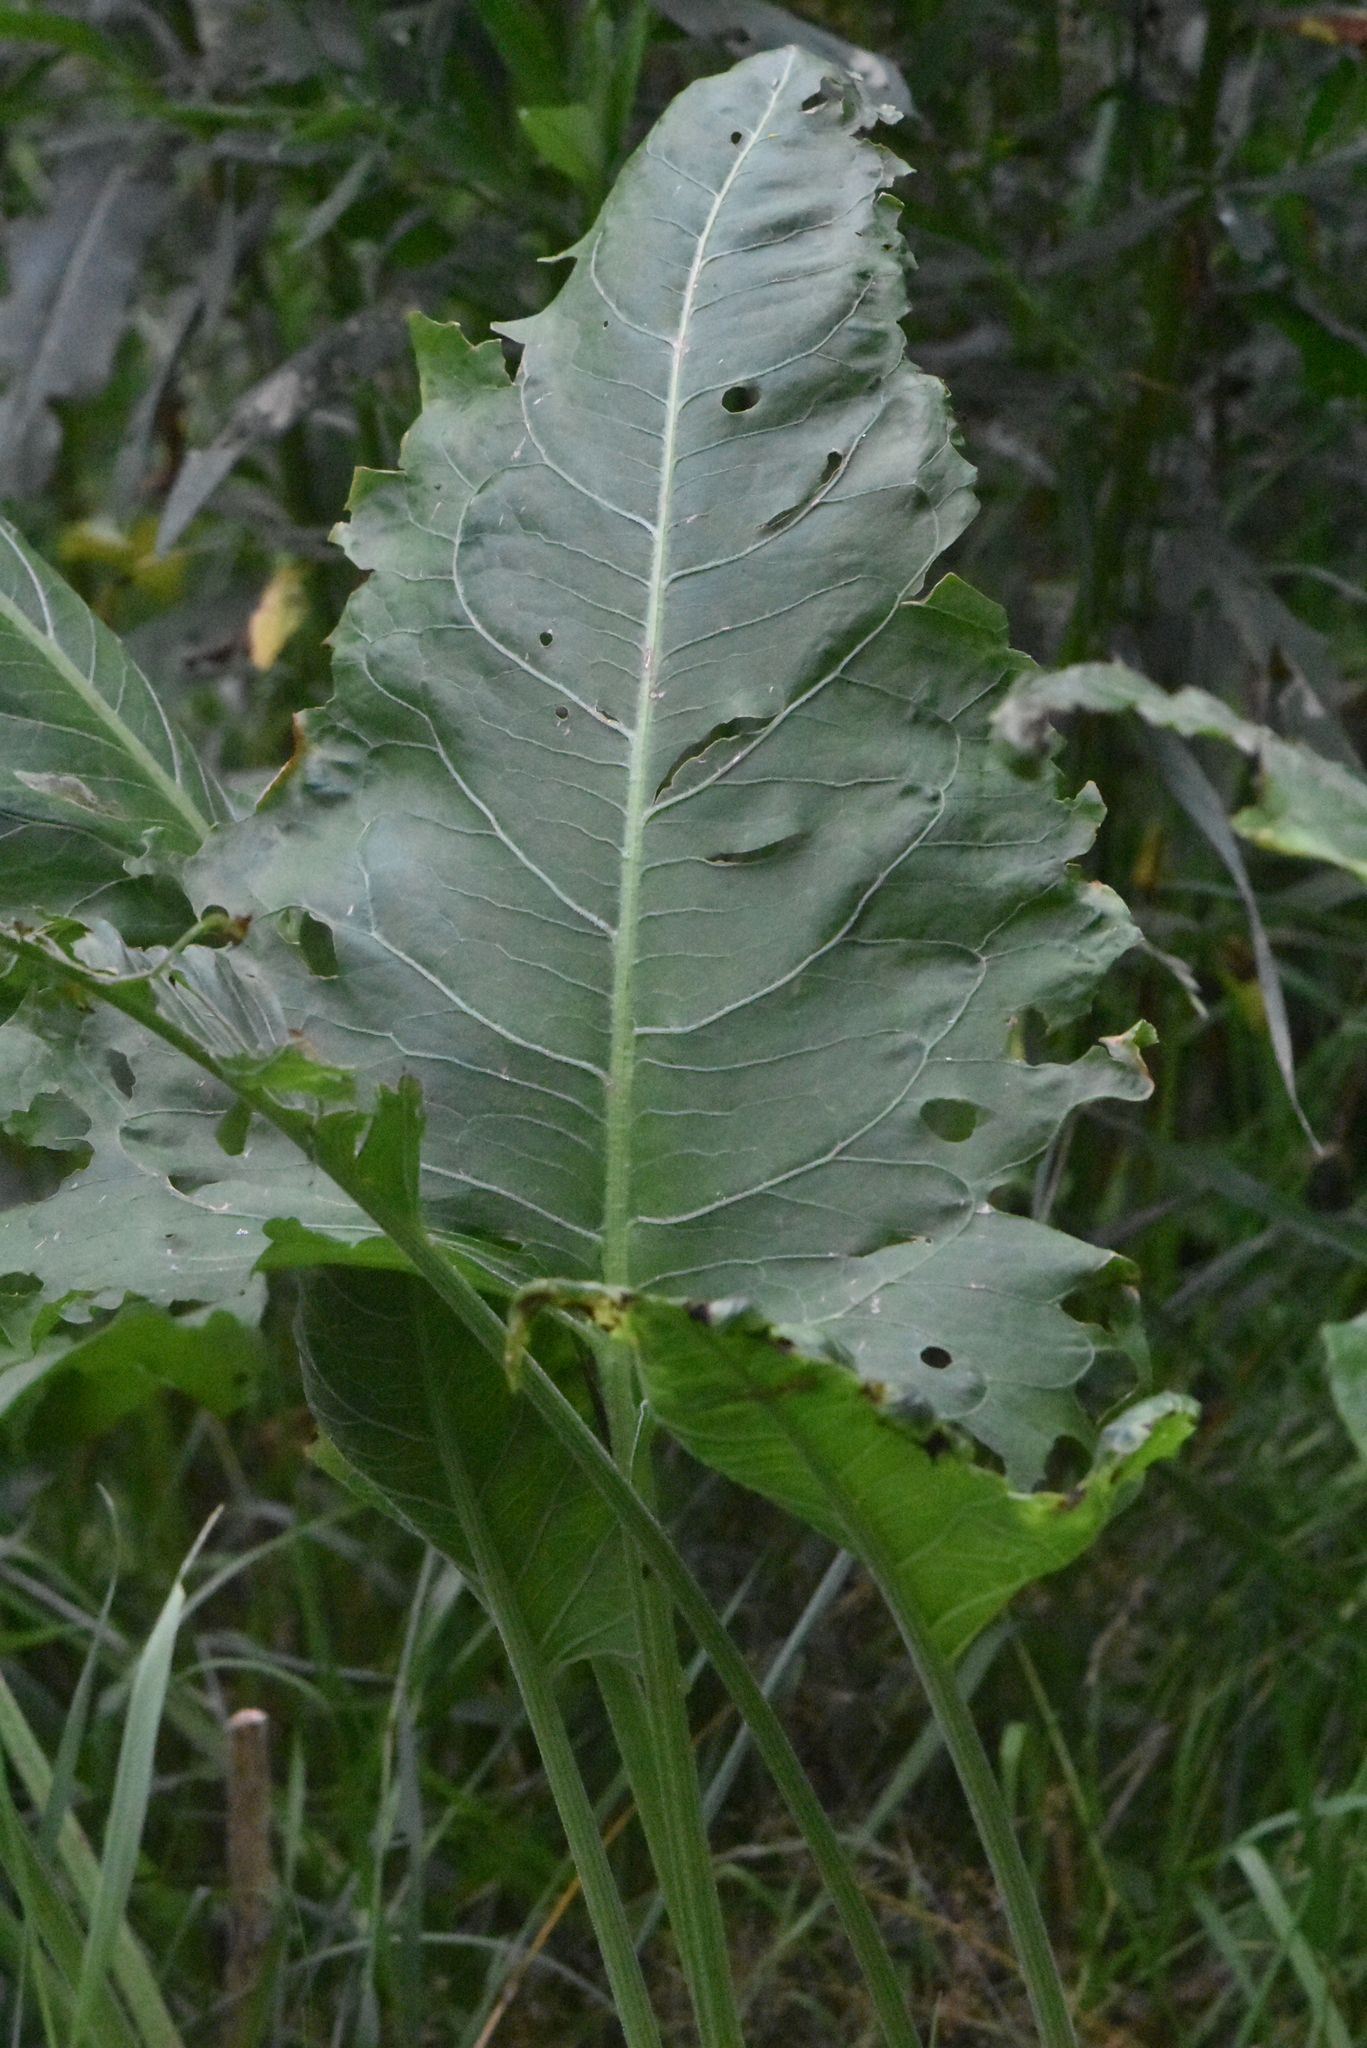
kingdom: Plantae
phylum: Tracheophyta
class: Magnoliopsida
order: Caryophyllales
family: Polygonaceae
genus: Rumex
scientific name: Rumex confertus
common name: Russian dock
